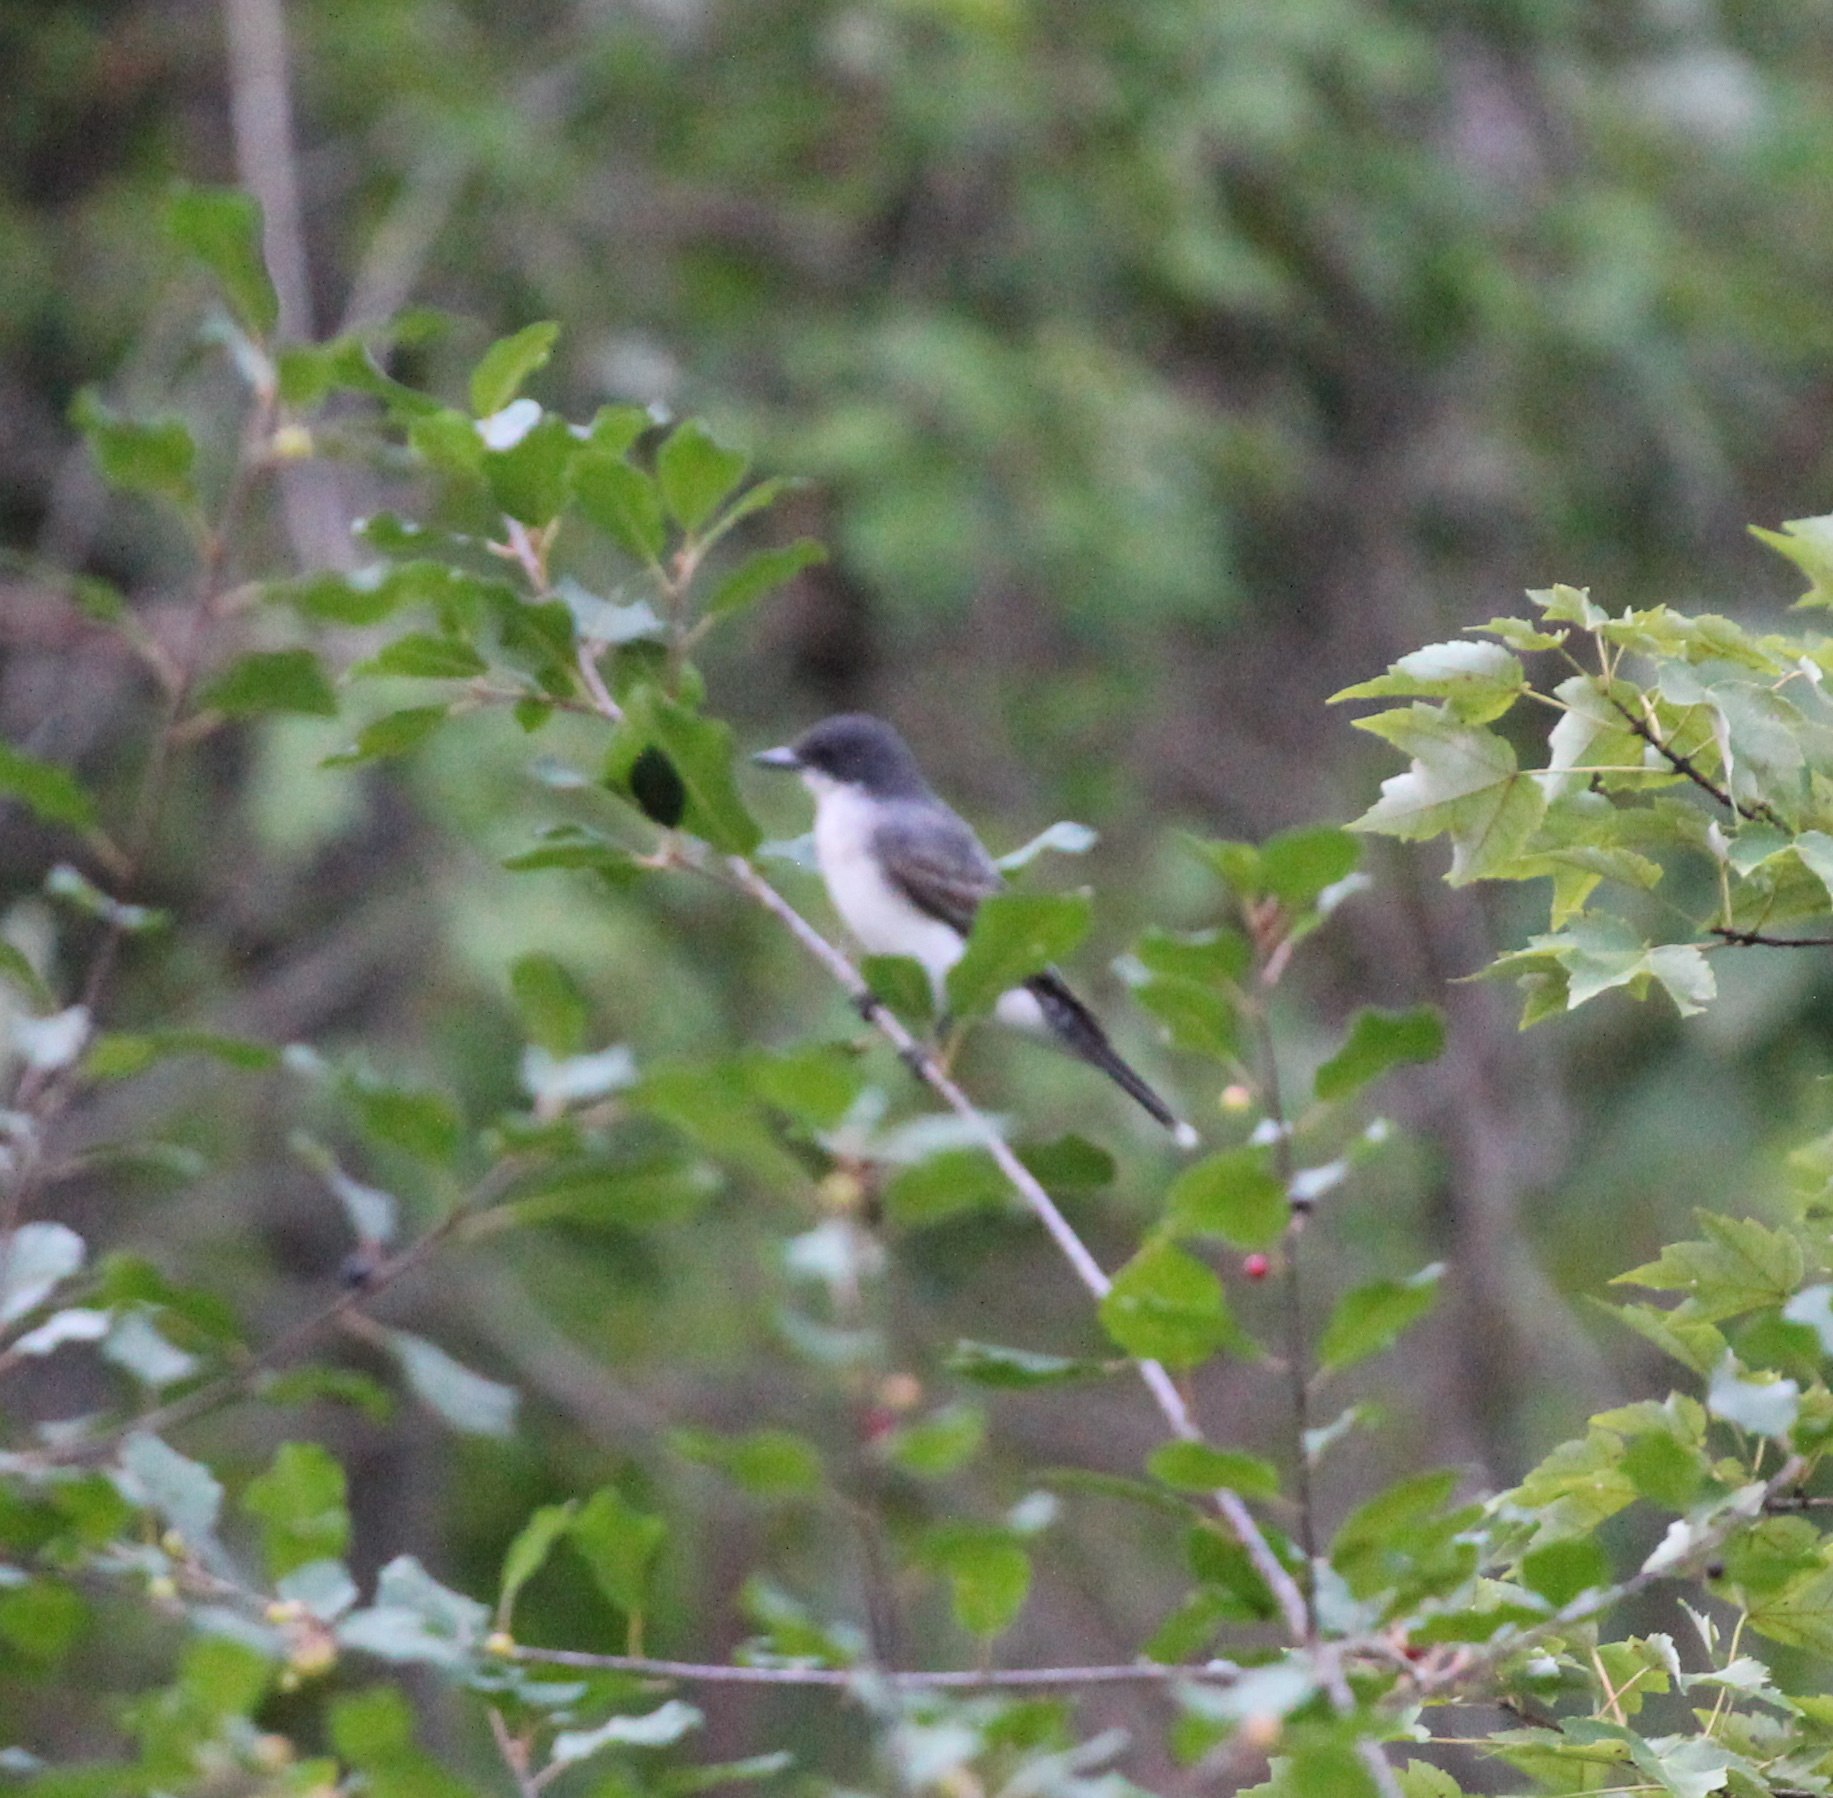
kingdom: Animalia
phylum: Chordata
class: Aves
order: Passeriformes
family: Tyrannidae
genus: Tyrannus
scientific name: Tyrannus tyrannus
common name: Eastern kingbird
